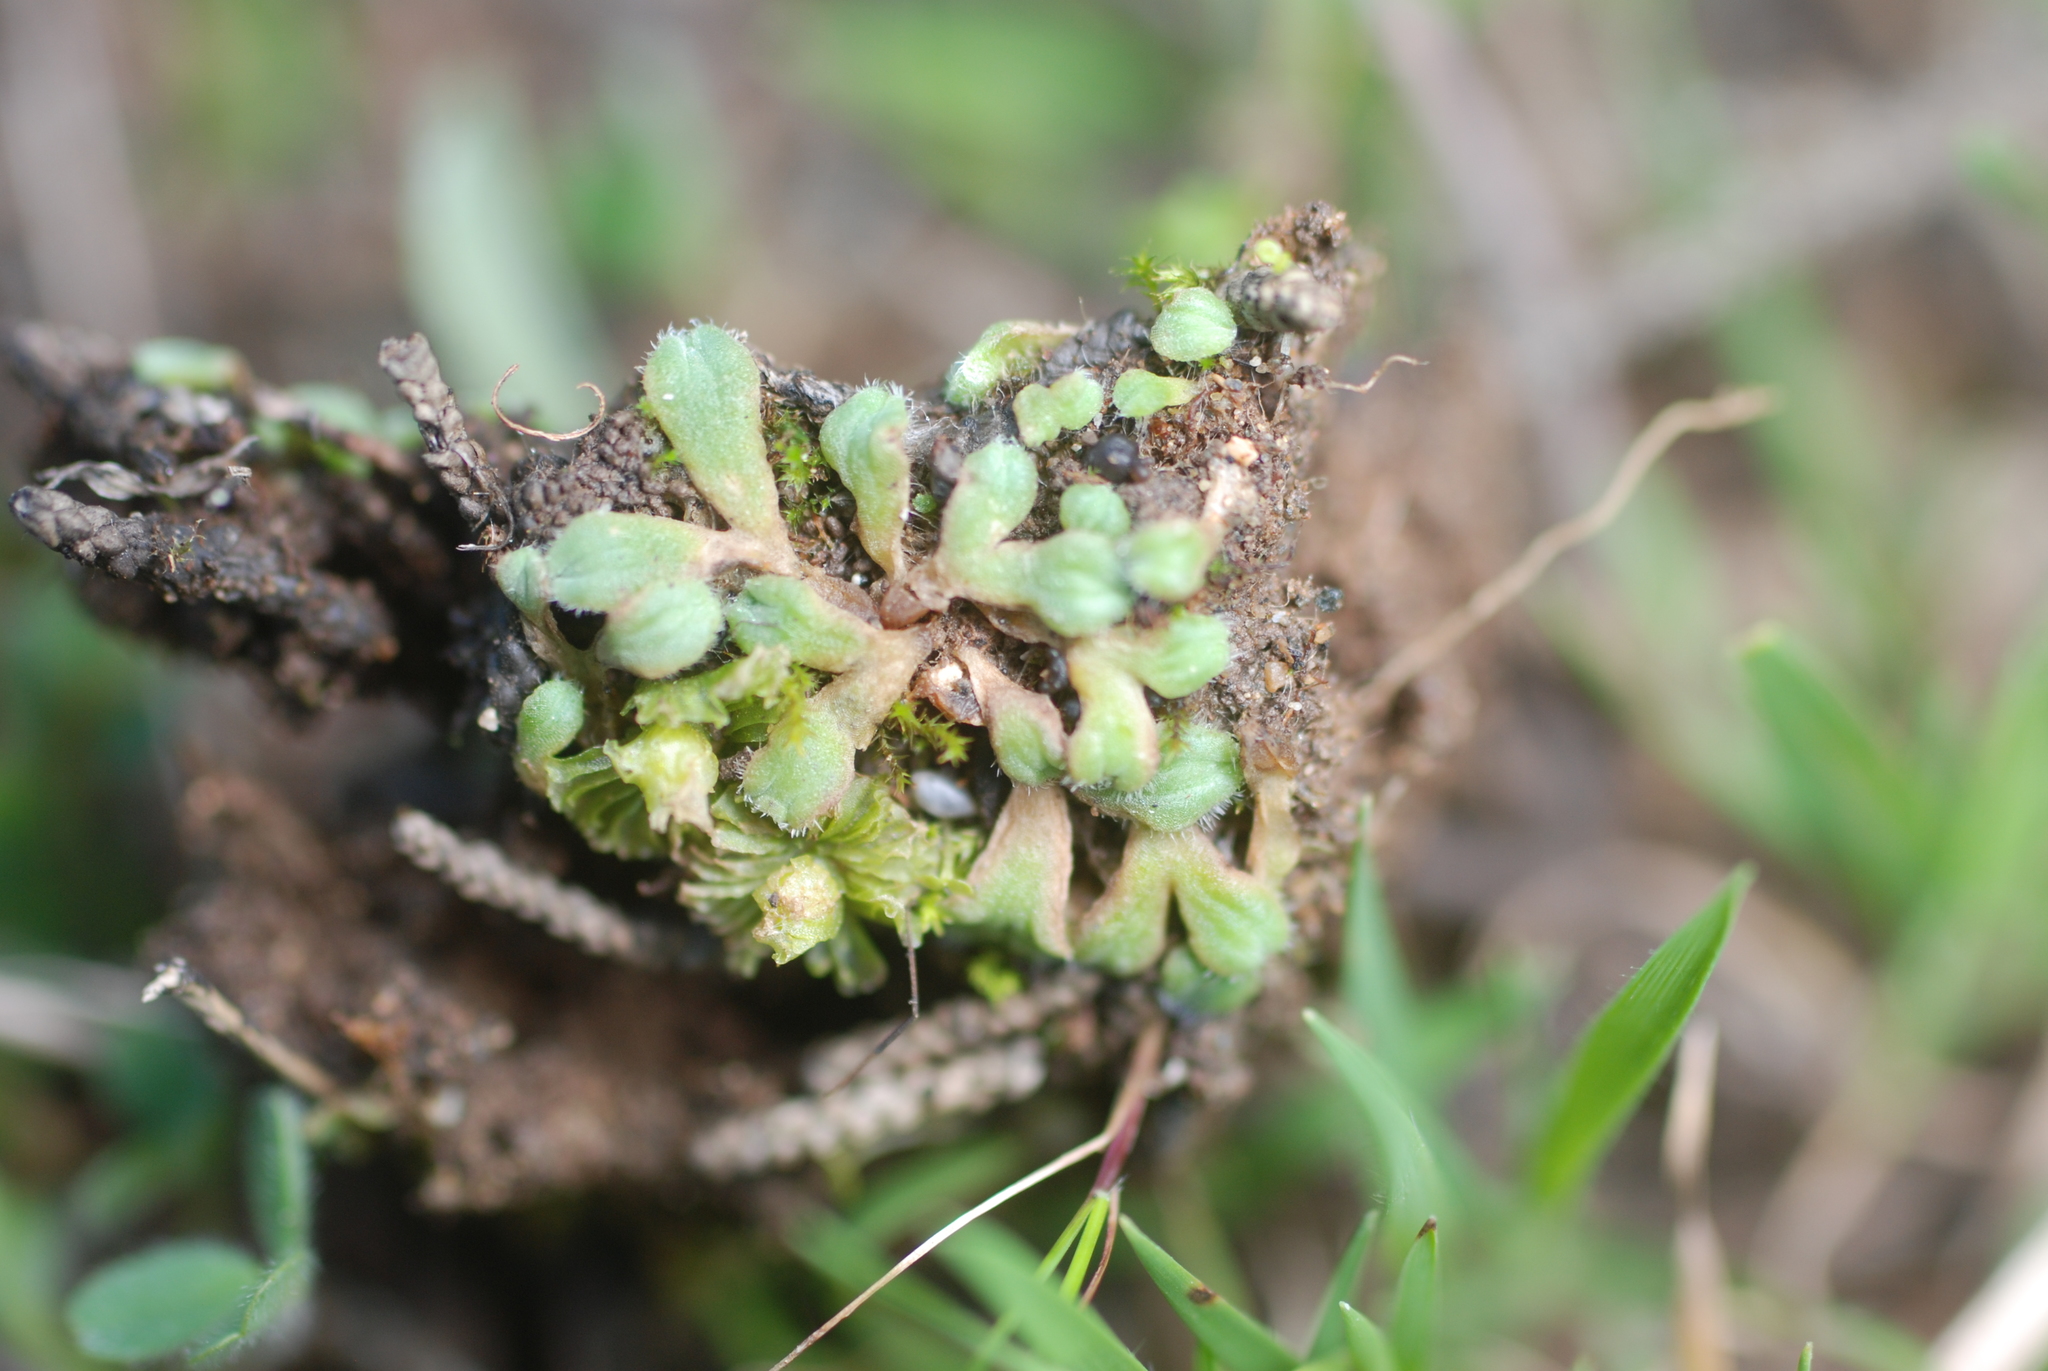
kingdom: Plantae
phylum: Marchantiophyta
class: Marchantiopsida
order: Marchantiales
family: Ricciaceae
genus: Riccia
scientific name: Riccia beyrichiana
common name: Purple crystalwort
